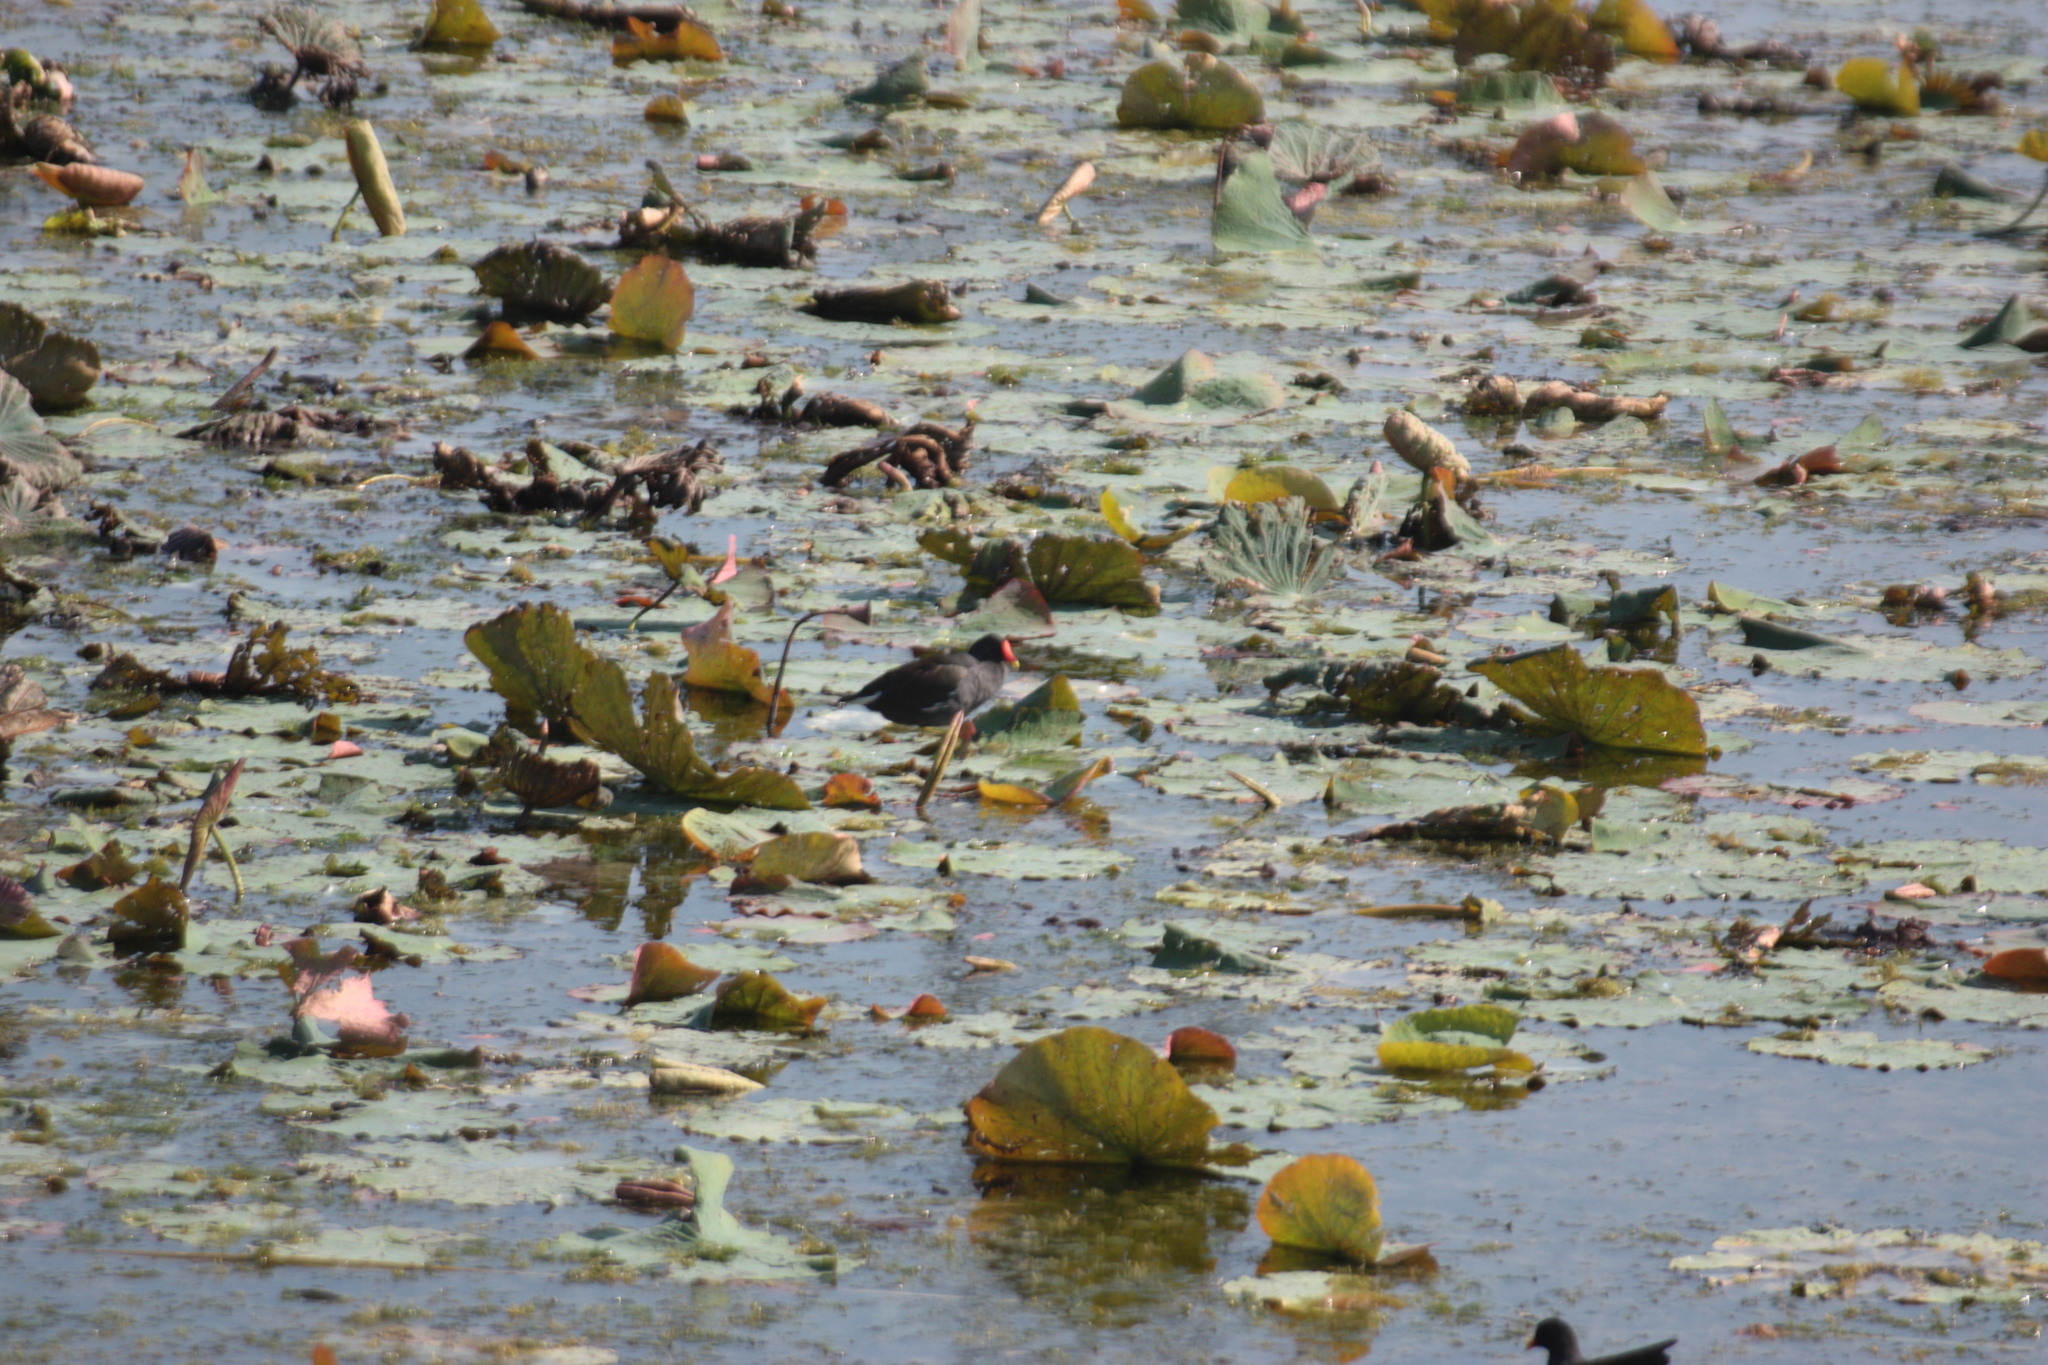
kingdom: Animalia
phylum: Chordata
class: Aves
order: Gruiformes
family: Rallidae
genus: Gallinula
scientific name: Gallinula chloropus
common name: Common moorhen
